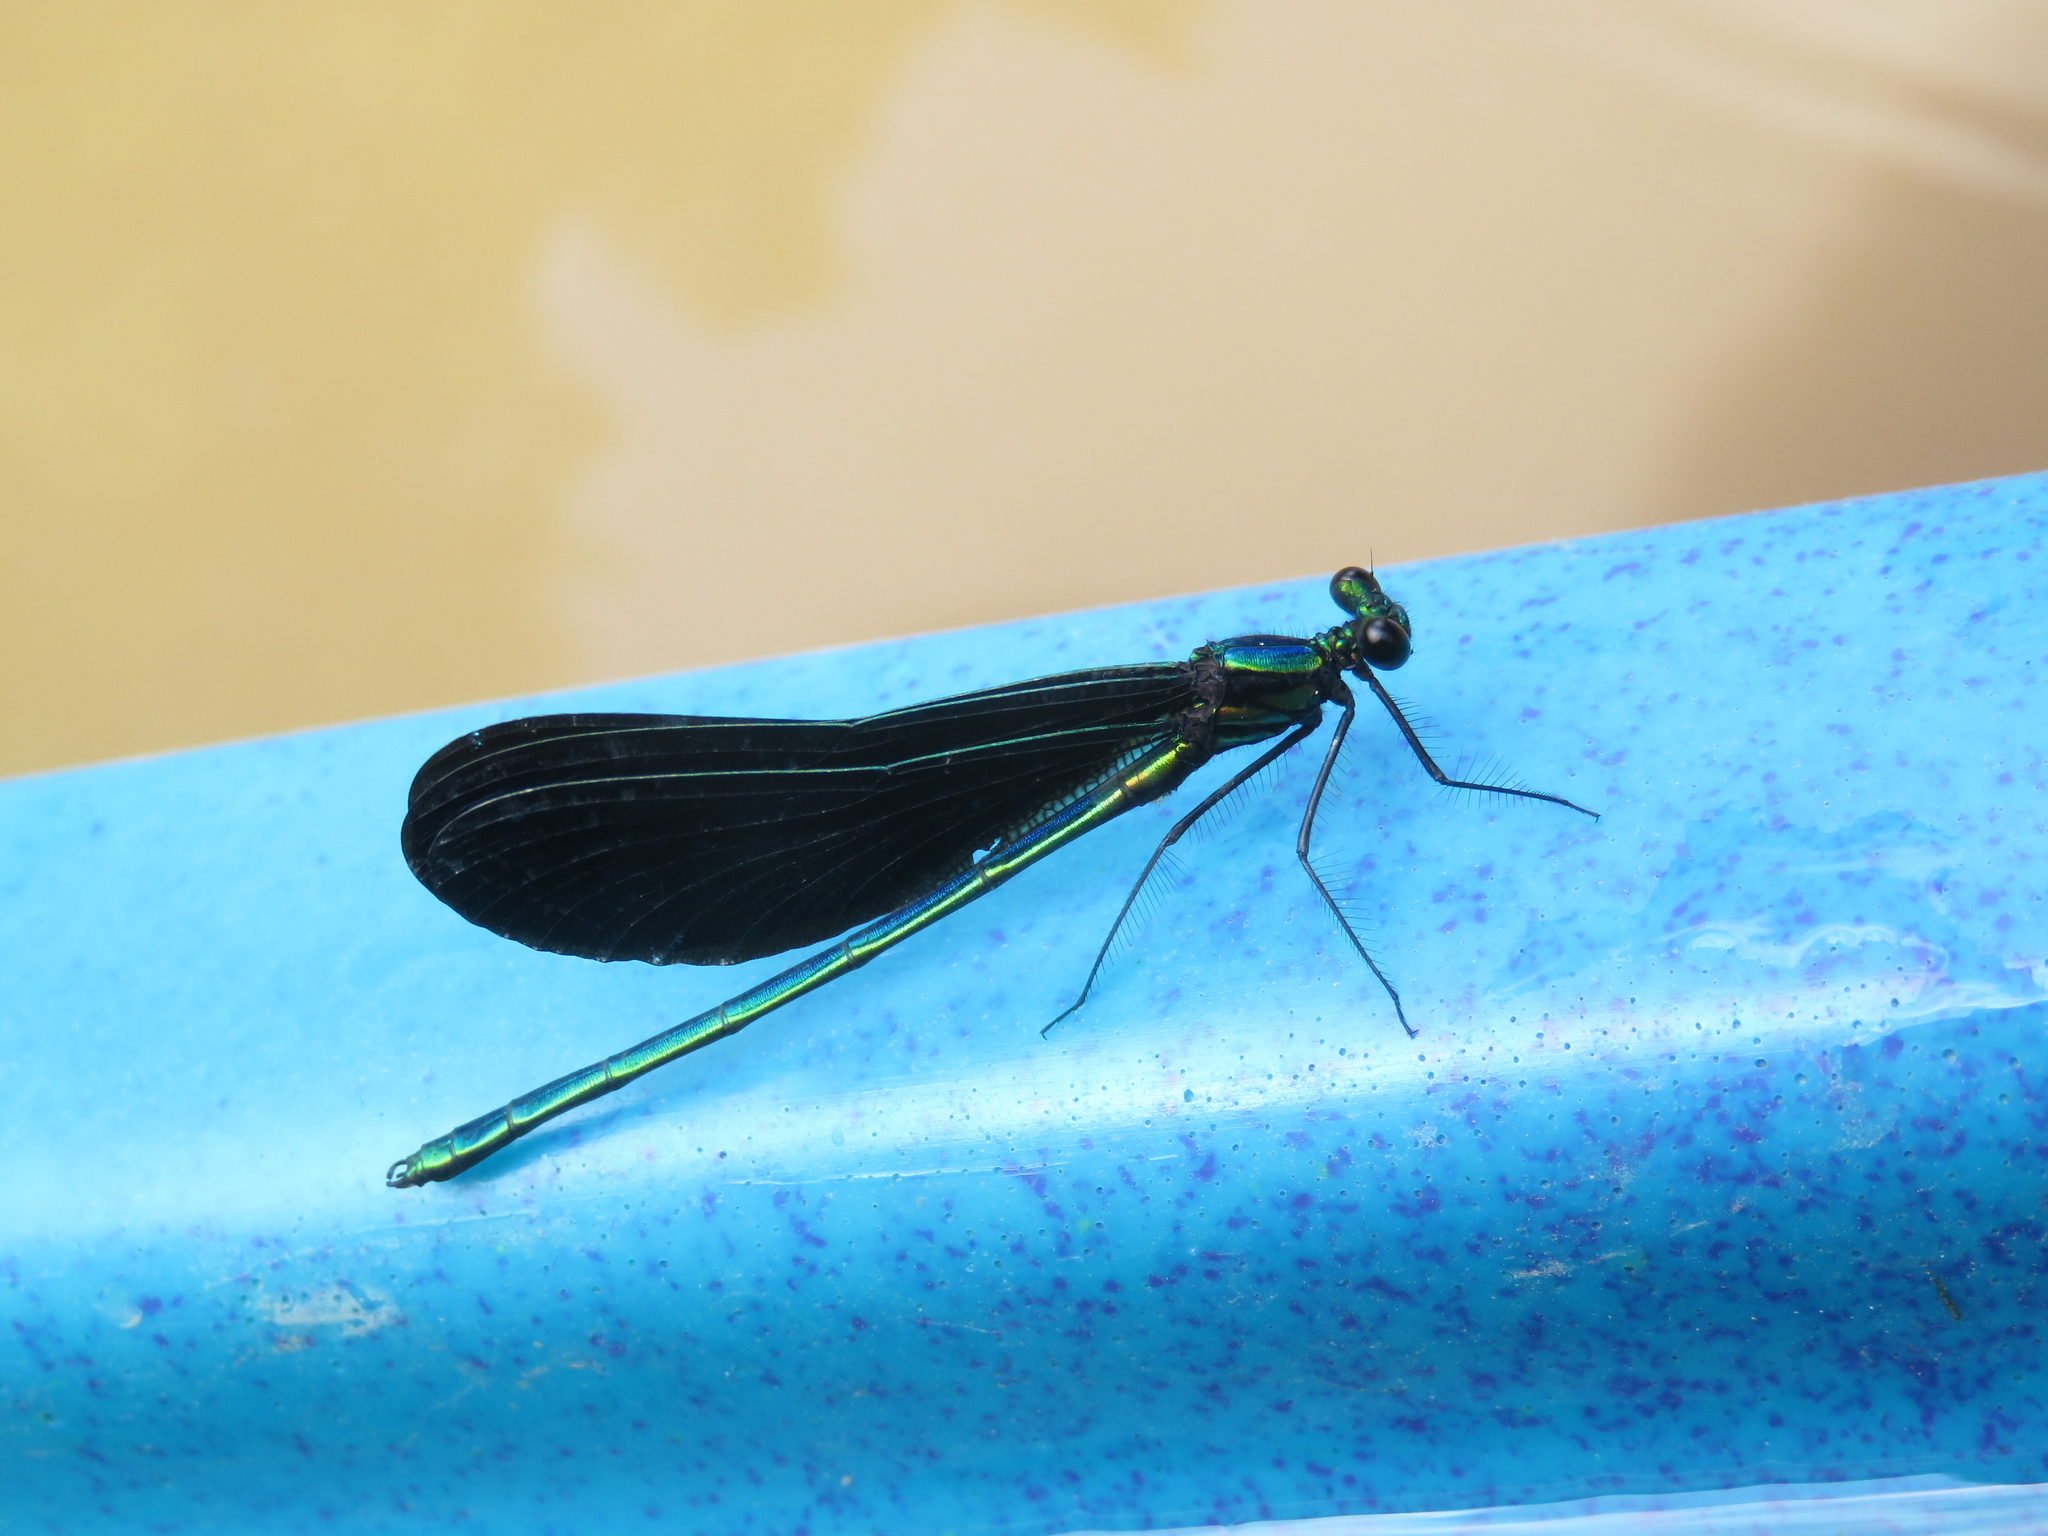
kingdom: Animalia
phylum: Arthropoda
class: Insecta
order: Odonata
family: Calopterygidae
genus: Calopteryx
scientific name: Calopteryx maculata
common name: Ebony jewelwing
